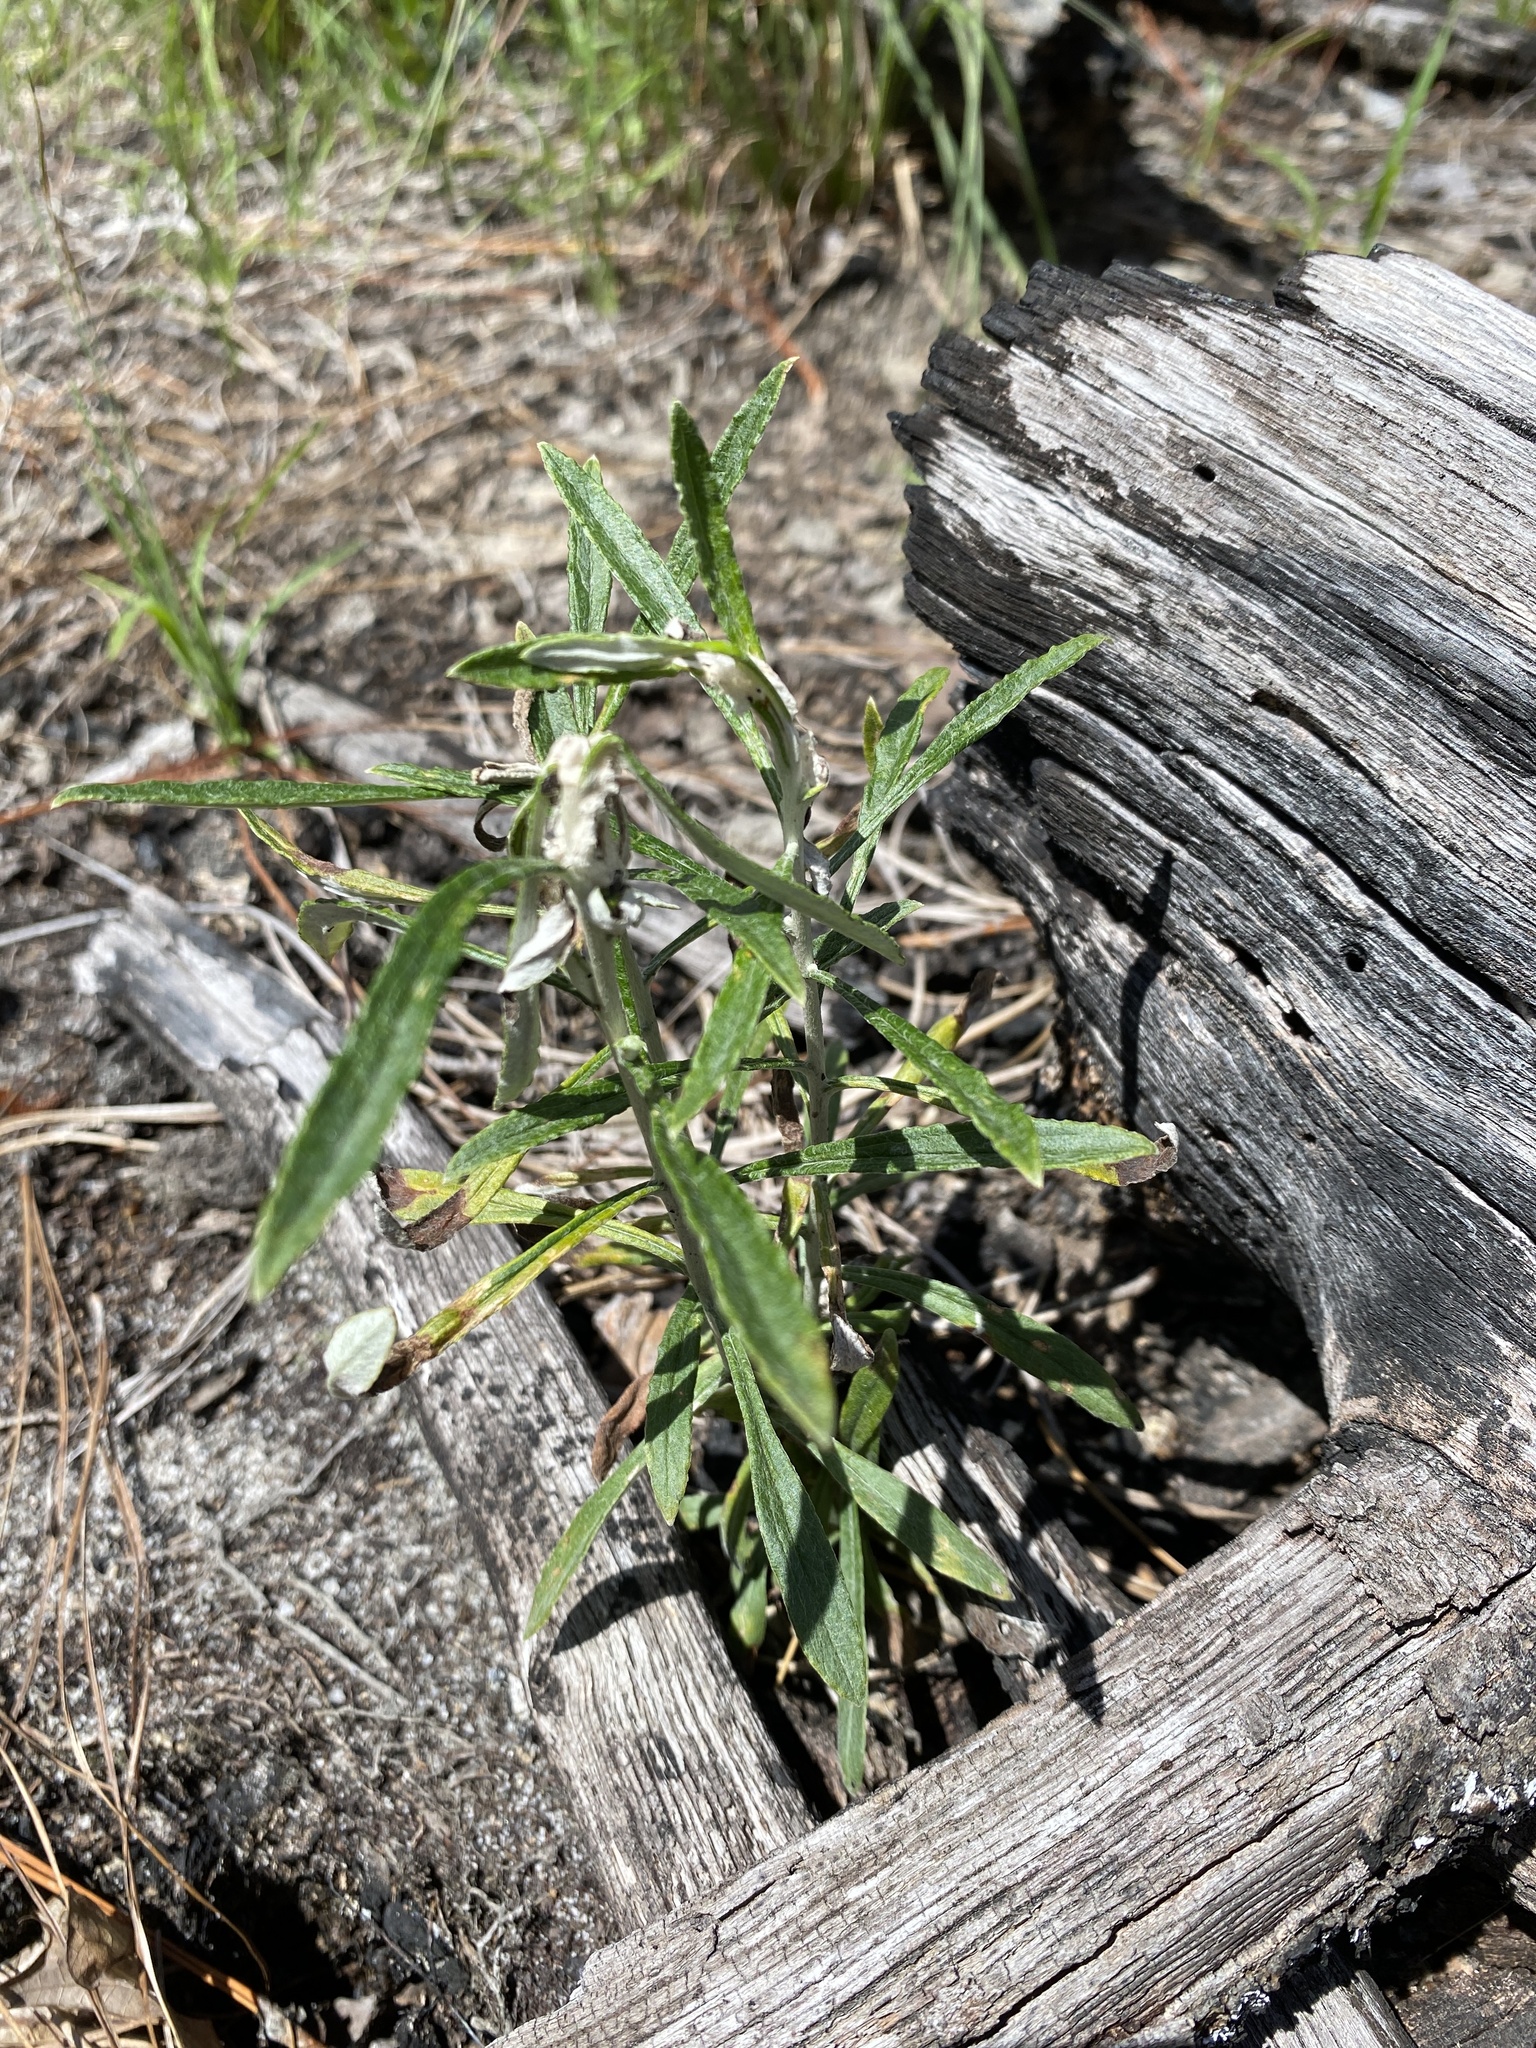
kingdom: Plantae
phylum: Tracheophyta
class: Magnoliopsida
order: Asterales
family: Asteraceae
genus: Pseudognaphalium
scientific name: Pseudognaphalium obtusifolium
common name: Eastern rabbit-tobacco
